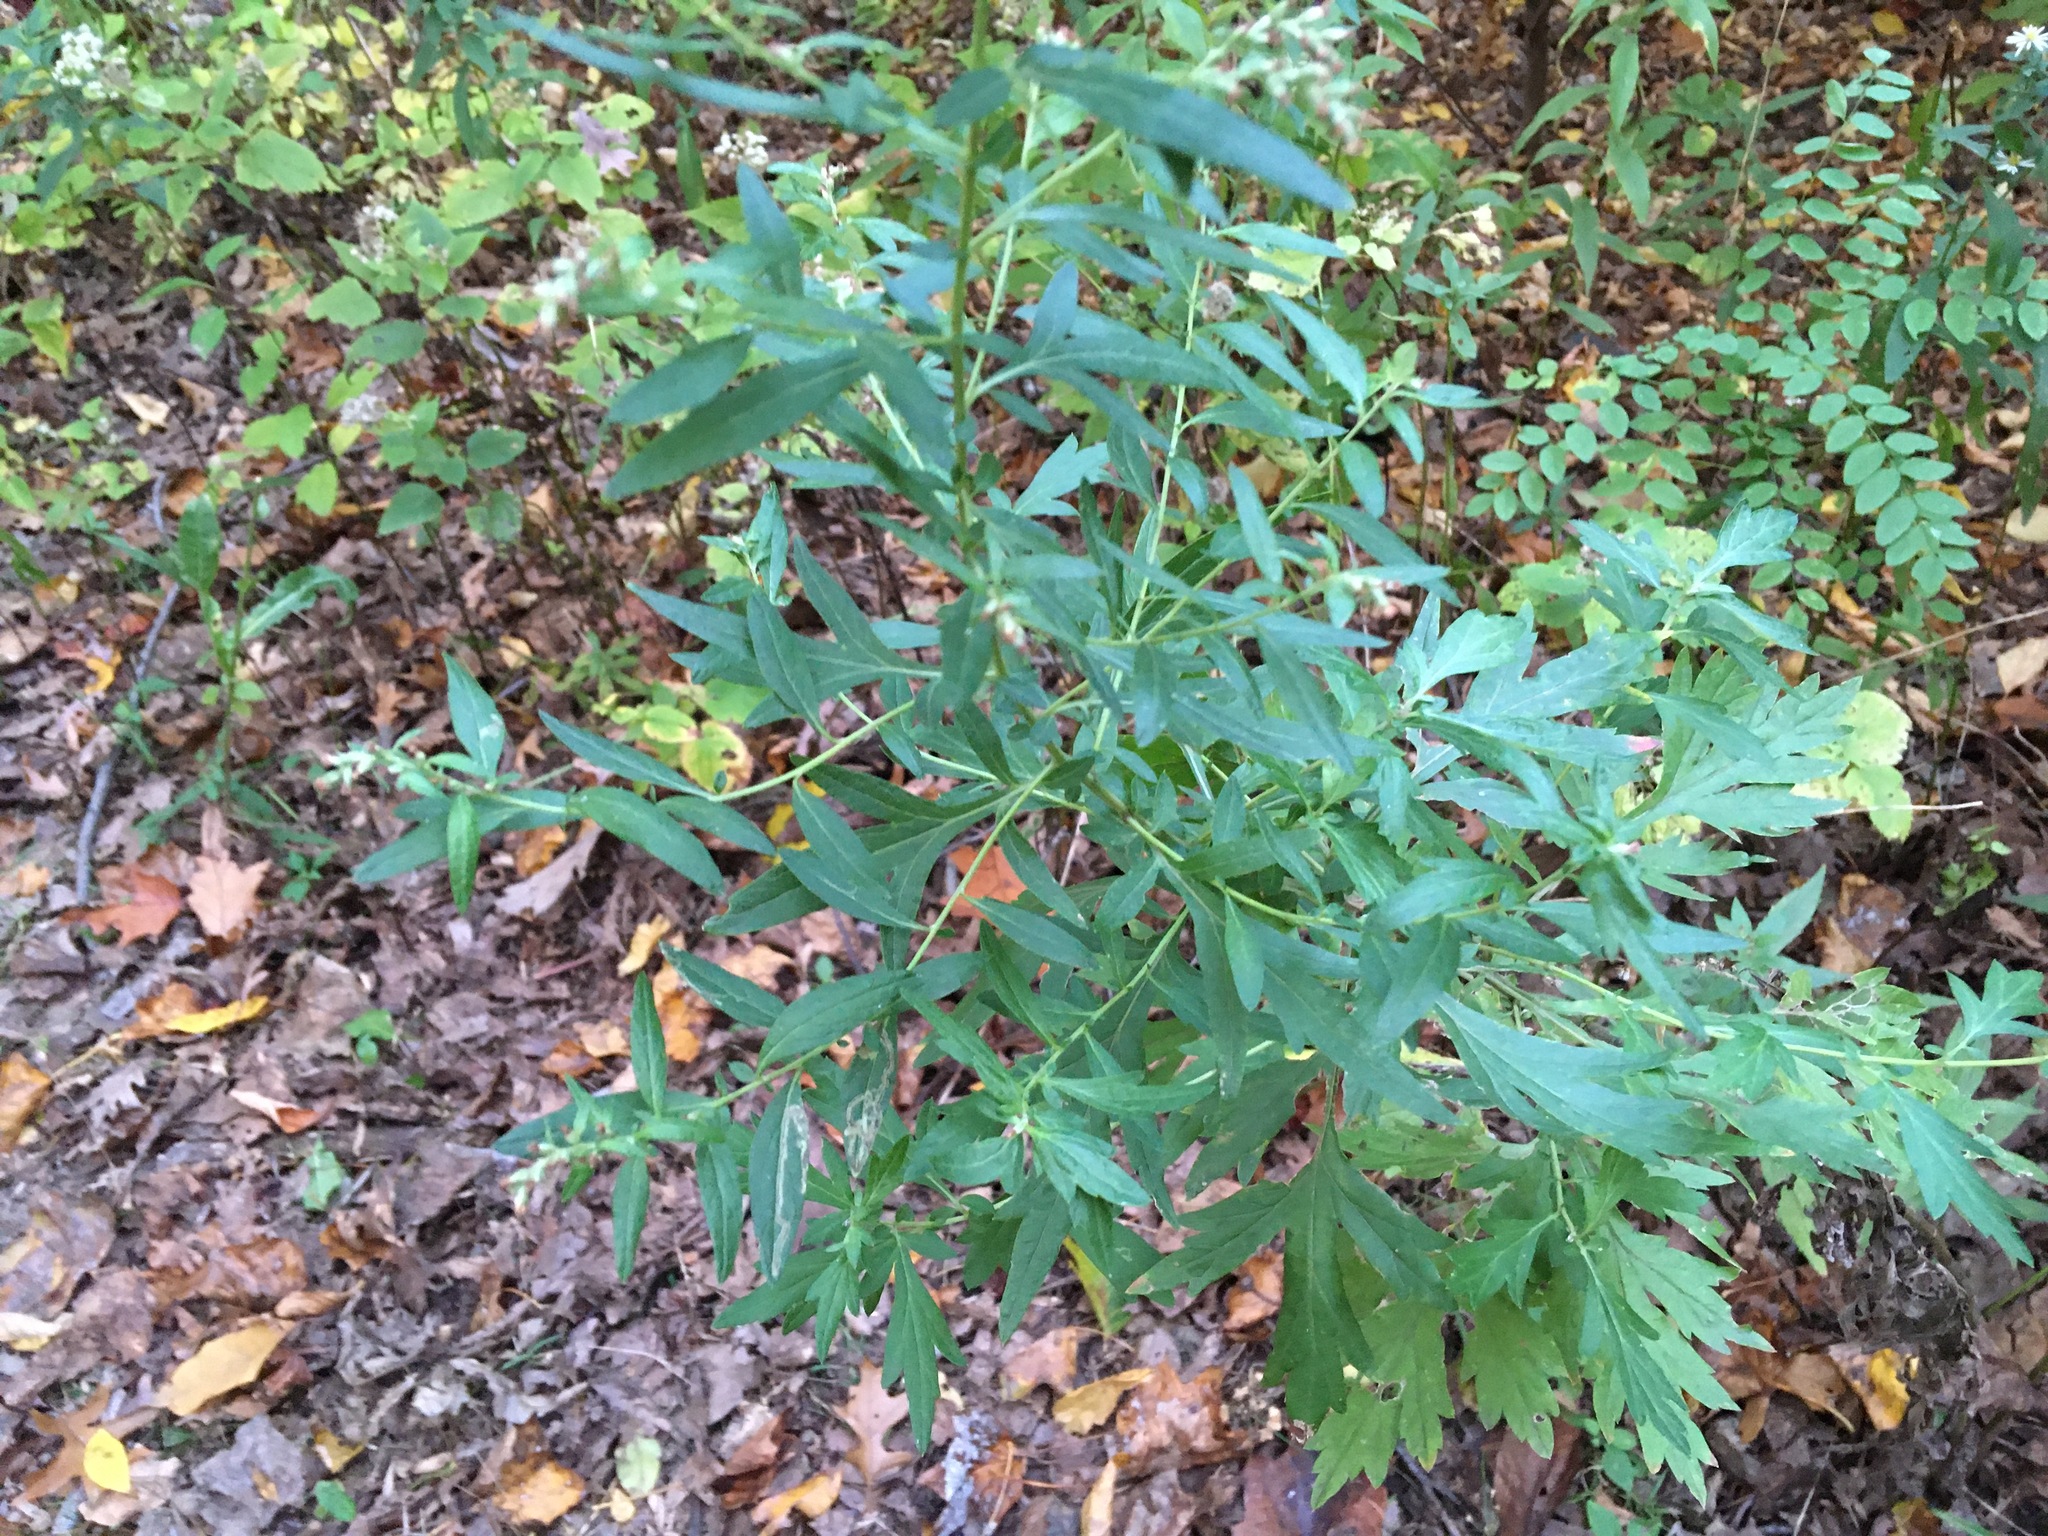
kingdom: Plantae
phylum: Tracheophyta
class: Magnoliopsida
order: Asterales
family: Asteraceae
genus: Artemisia
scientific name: Artemisia vulgaris
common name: Mugwort
